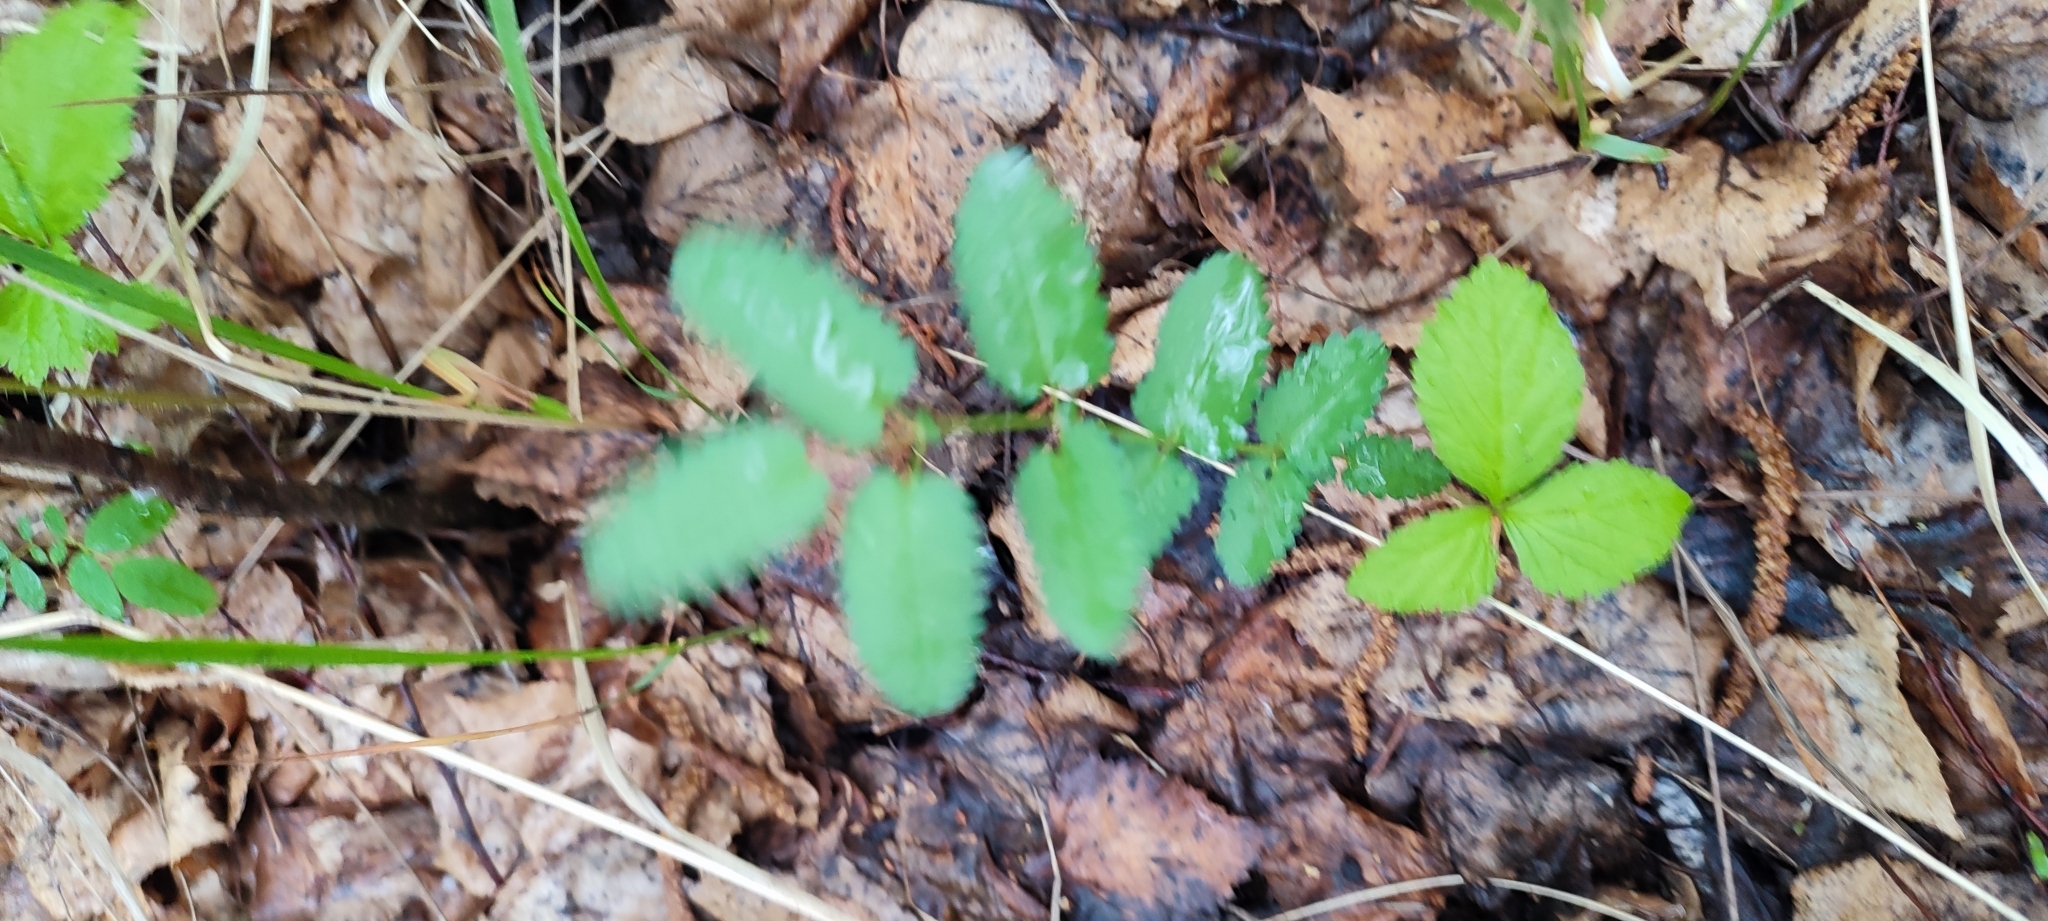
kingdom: Plantae
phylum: Tracheophyta
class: Magnoliopsida
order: Rosales
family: Rosaceae
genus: Sanguisorba
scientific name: Sanguisorba officinalis
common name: Great burnet
